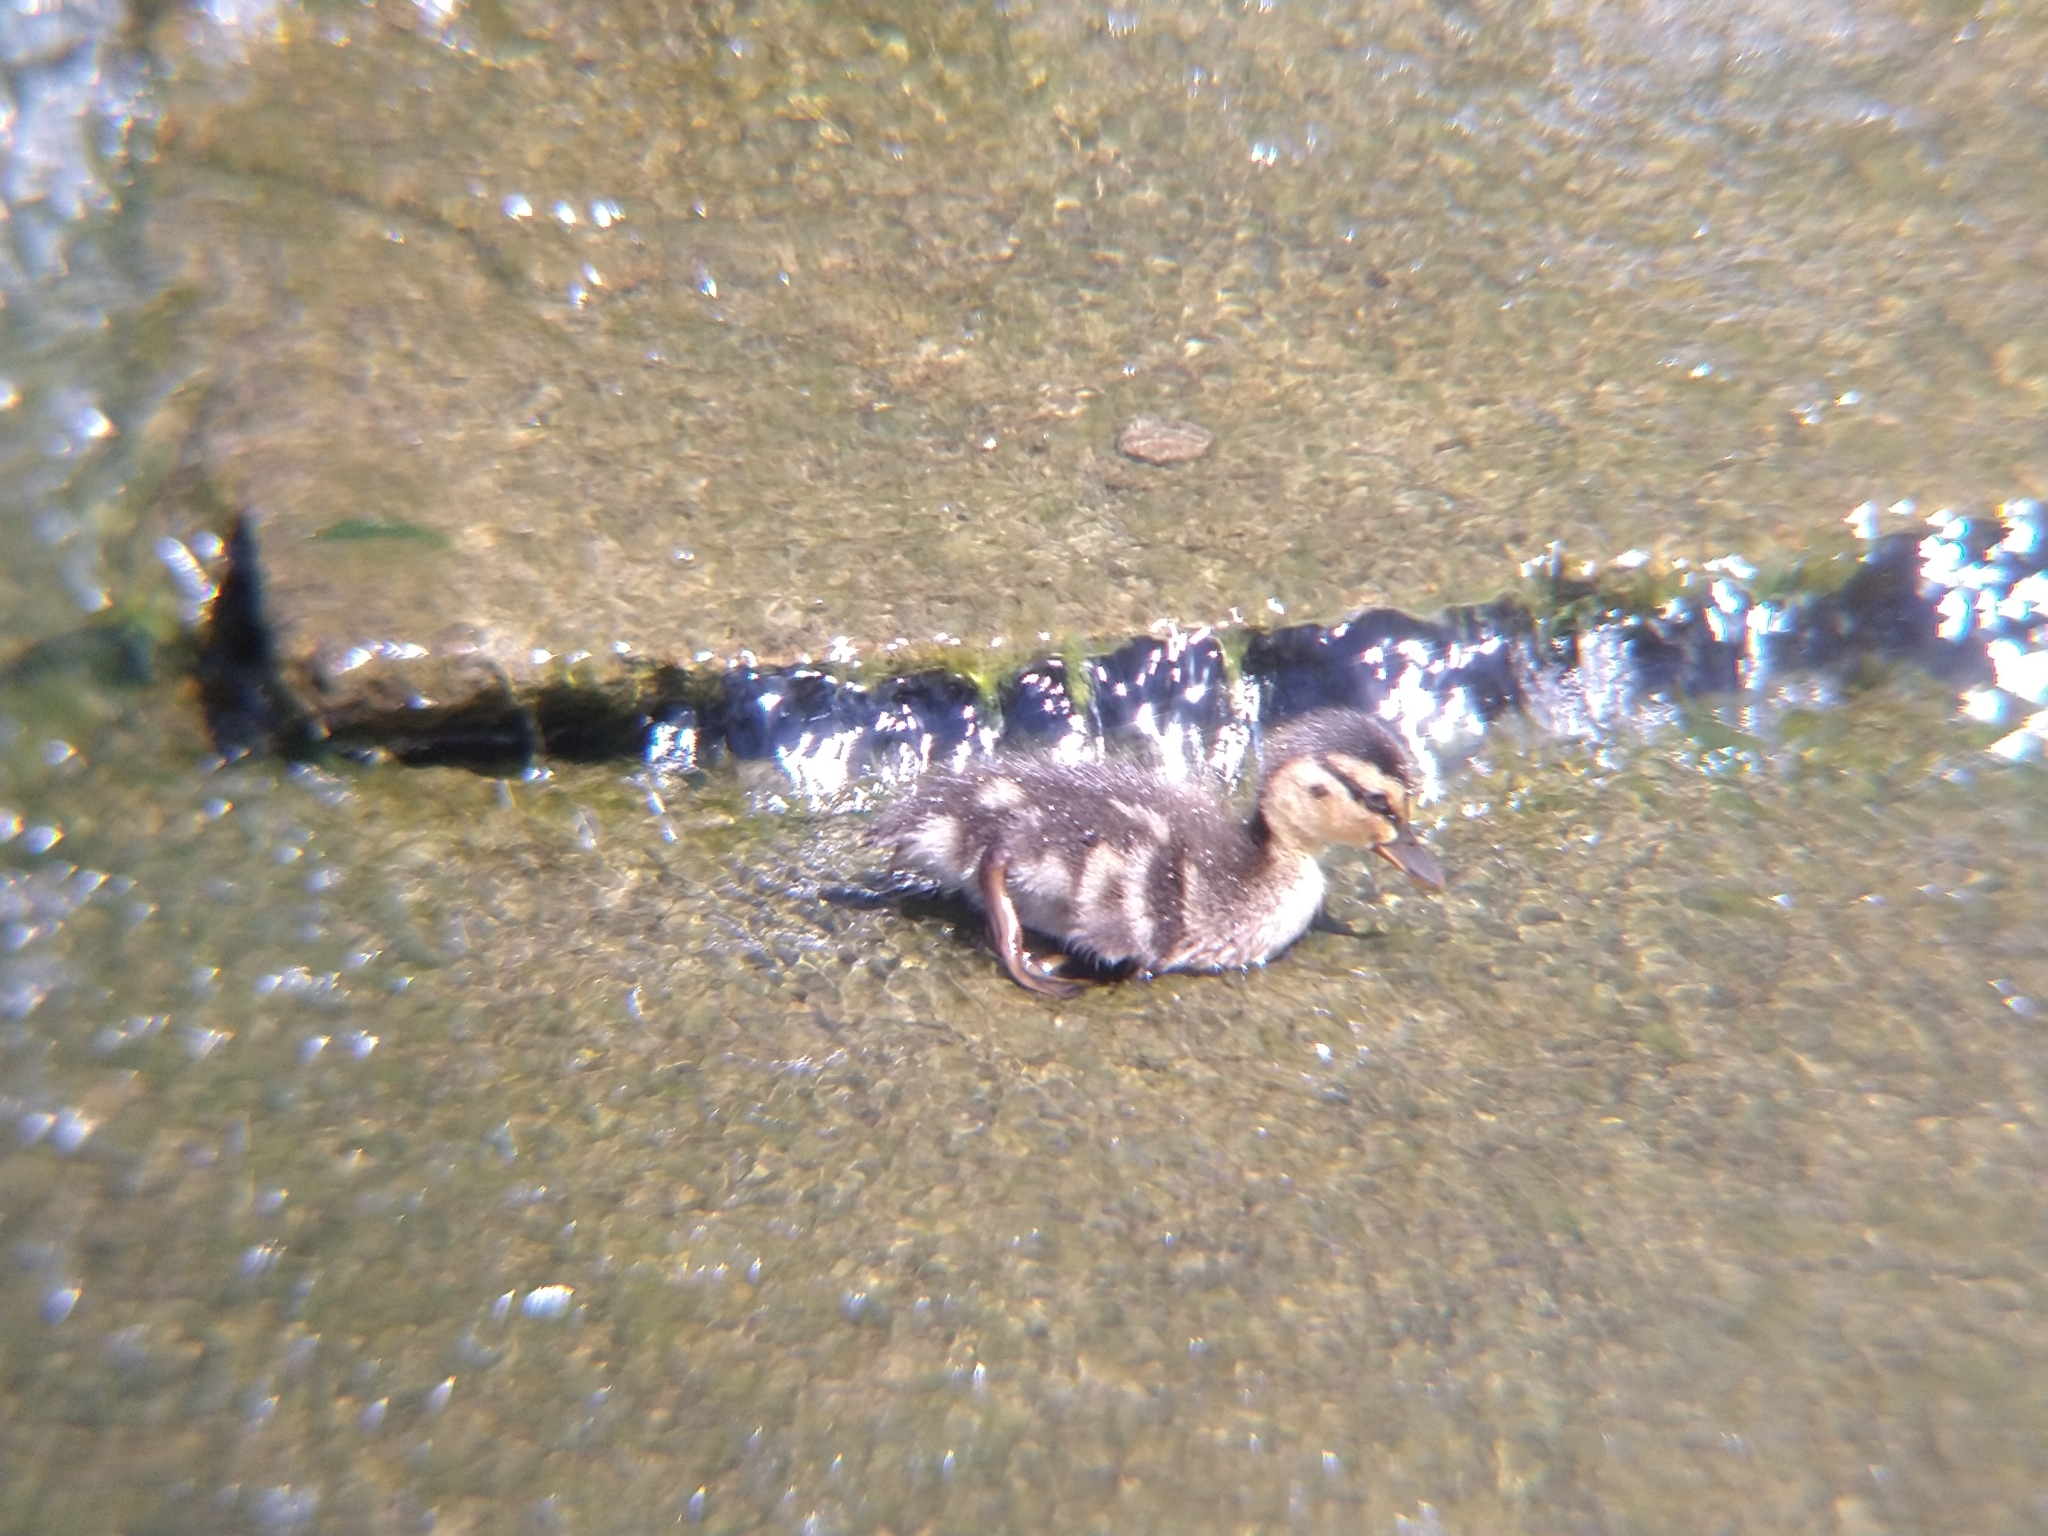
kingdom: Animalia
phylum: Chordata
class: Aves
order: Anseriformes
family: Anatidae
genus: Anas
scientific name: Anas platyrhynchos
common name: Mallard
